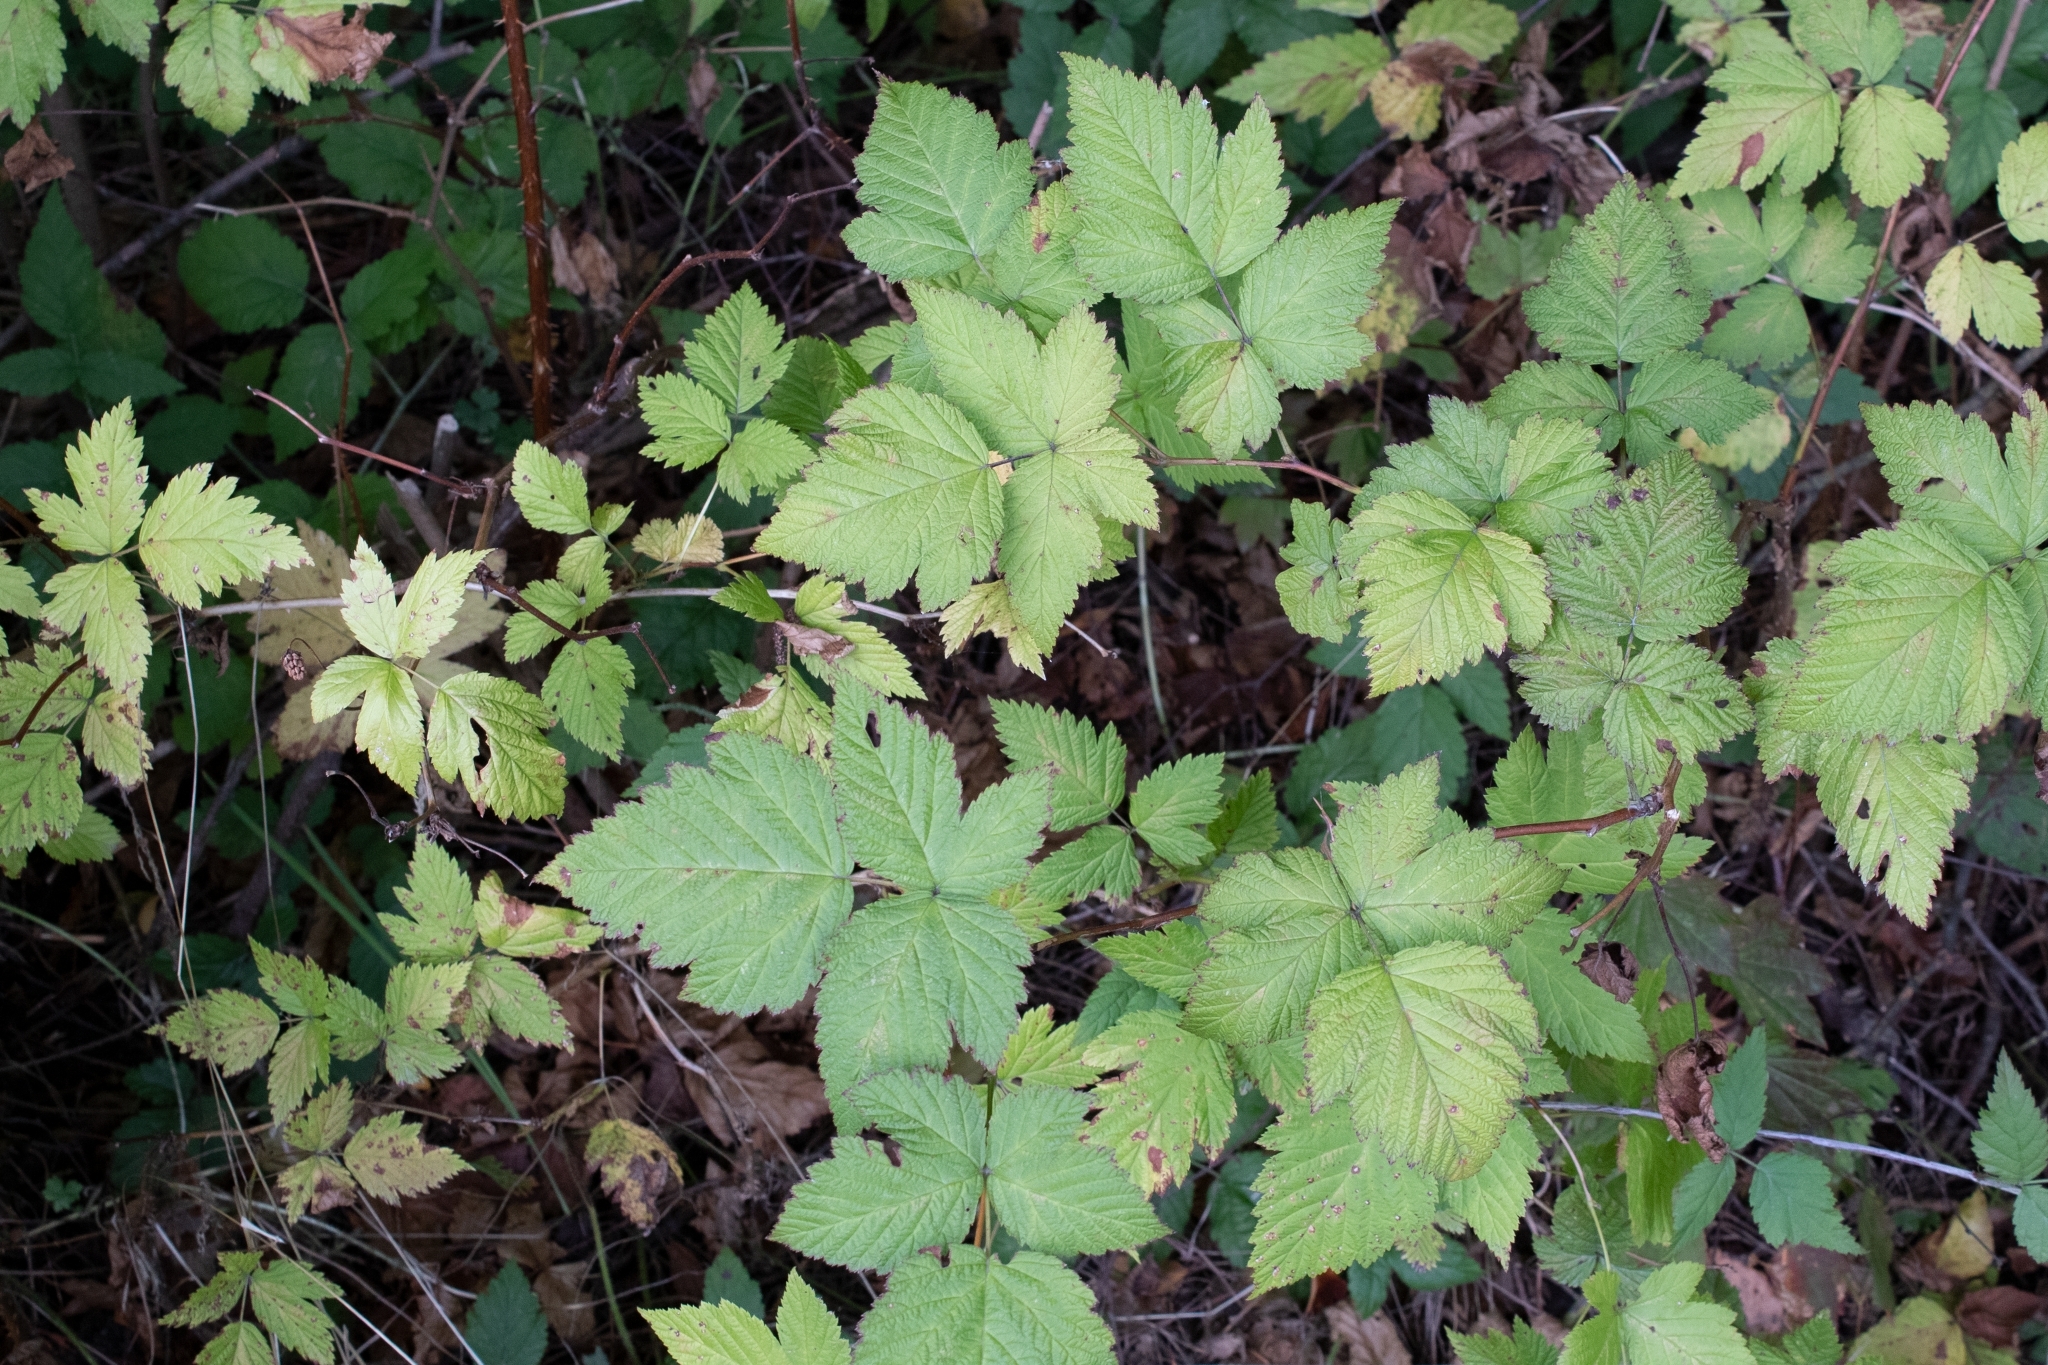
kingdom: Plantae
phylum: Tracheophyta
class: Magnoliopsida
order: Rosales
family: Rosaceae
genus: Rubus
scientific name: Rubus spectabilis
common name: Salmonberry
